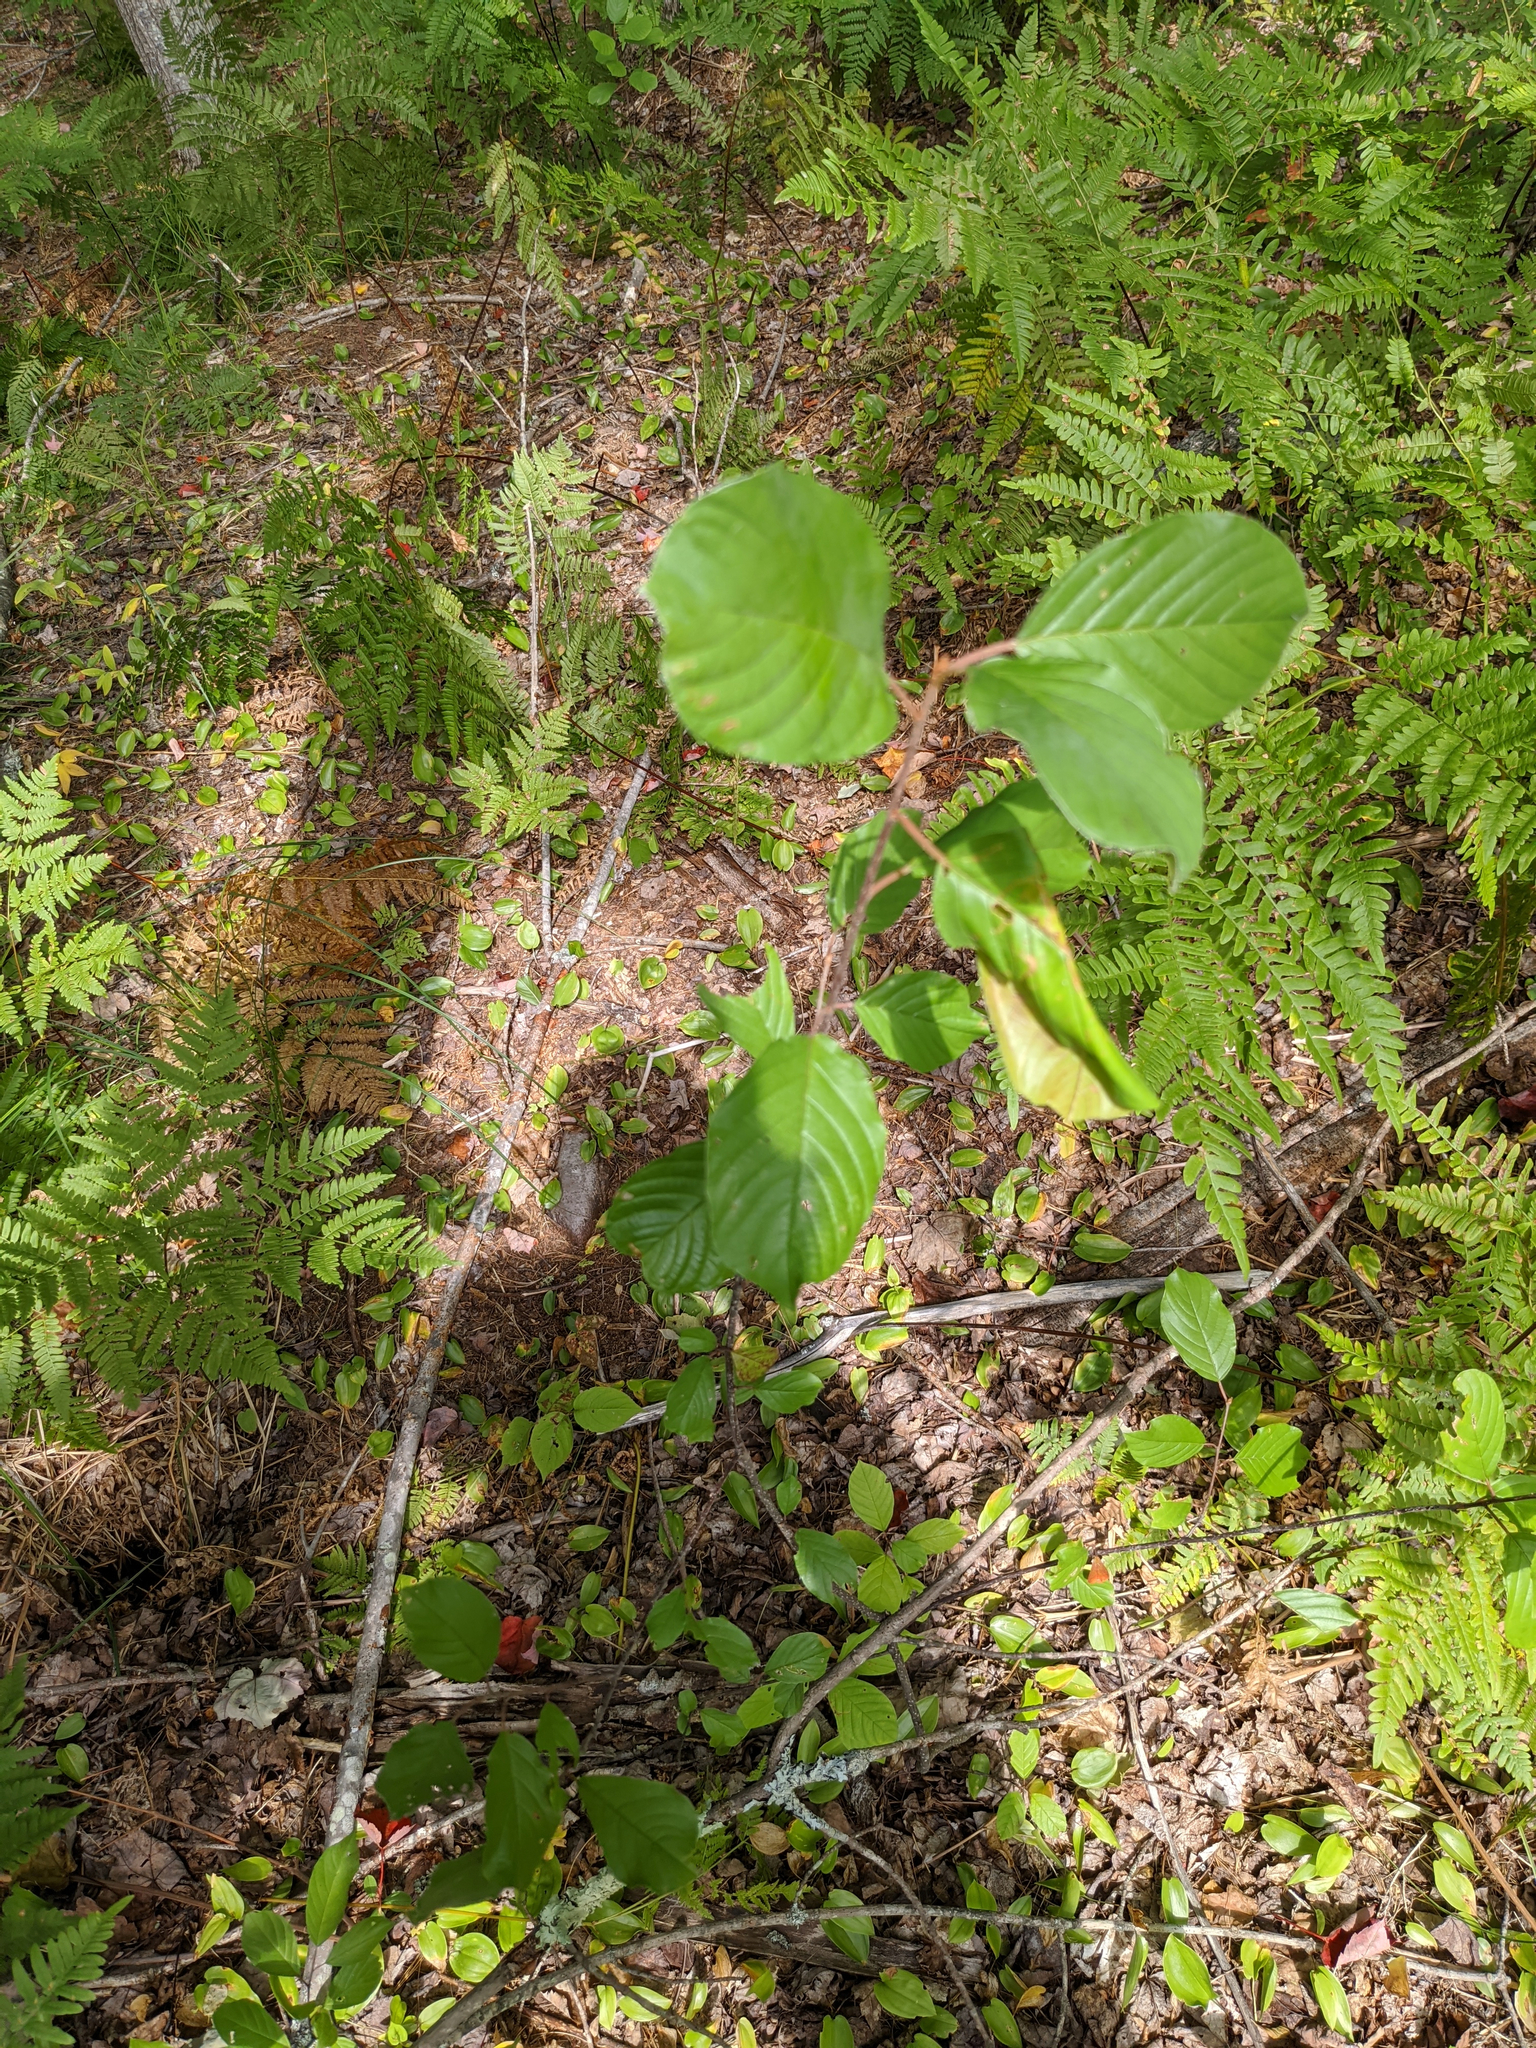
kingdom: Plantae
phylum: Tracheophyta
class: Magnoliopsida
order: Rosales
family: Rhamnaceae
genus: Frangula
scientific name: Frangula alnus
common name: Alder buckthorn
